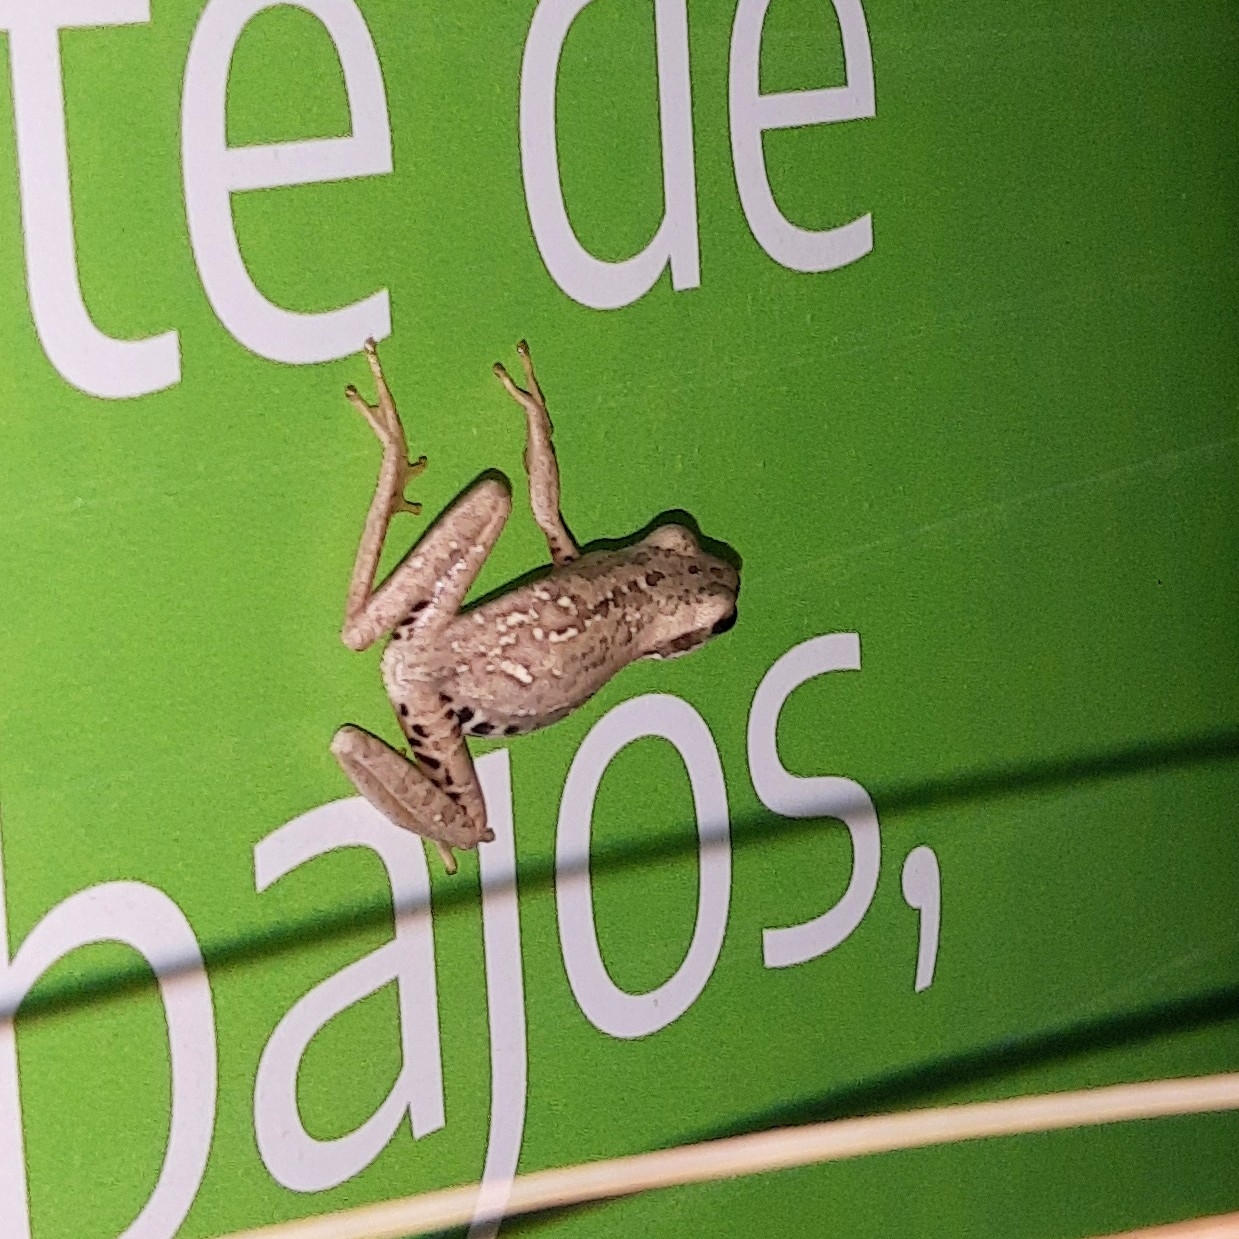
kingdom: Animalia
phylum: Chordata
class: Amphibia
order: Anura
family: Hylidae
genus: Boana
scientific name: Boana pulchella
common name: Montevideo treefrog
